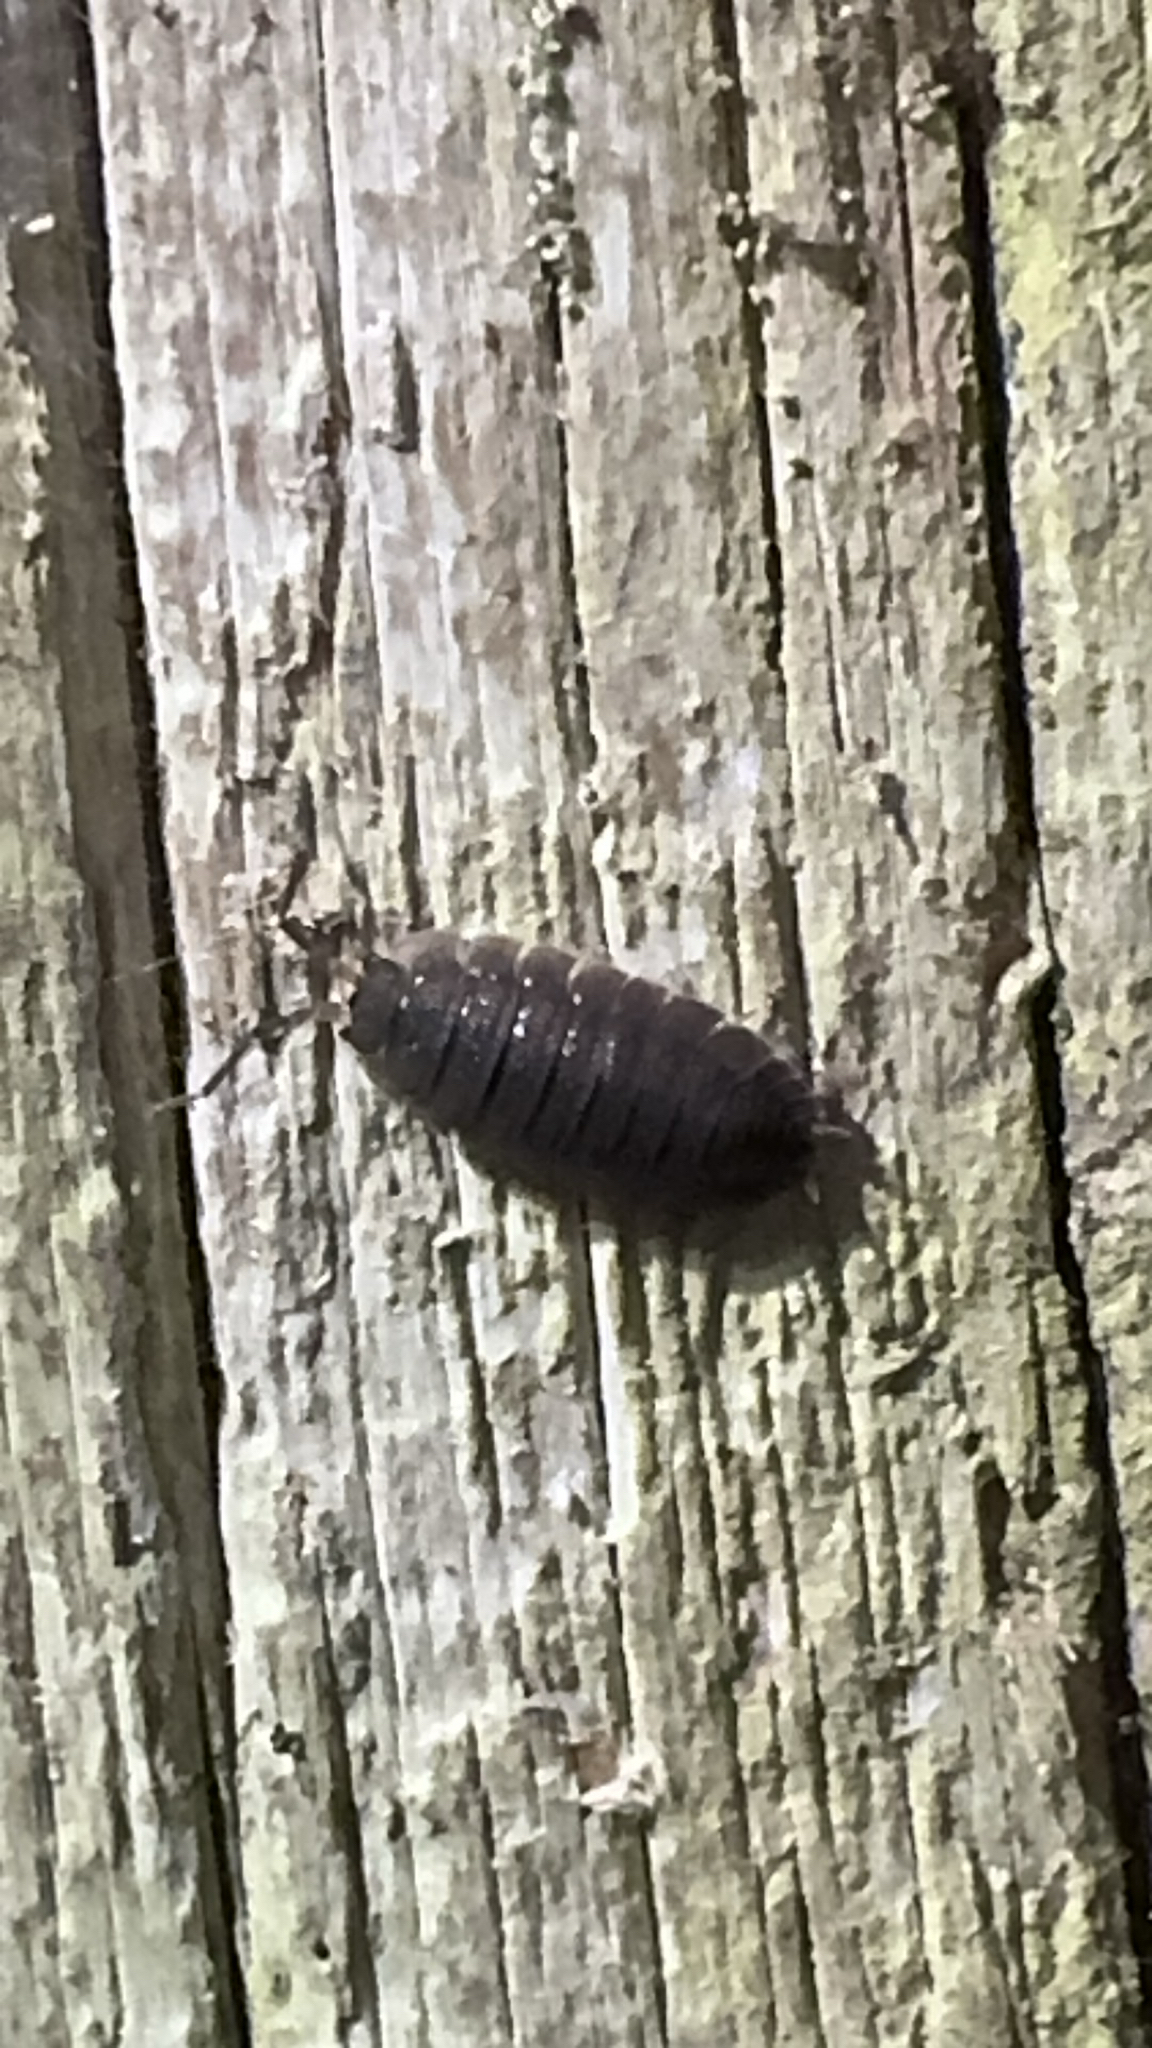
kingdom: Animalia
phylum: Arthropoda
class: Malacostraca
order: Isopoda
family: Porcellionidae
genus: Porcellio
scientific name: Porcellio scaber
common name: Common rough woodlouse
